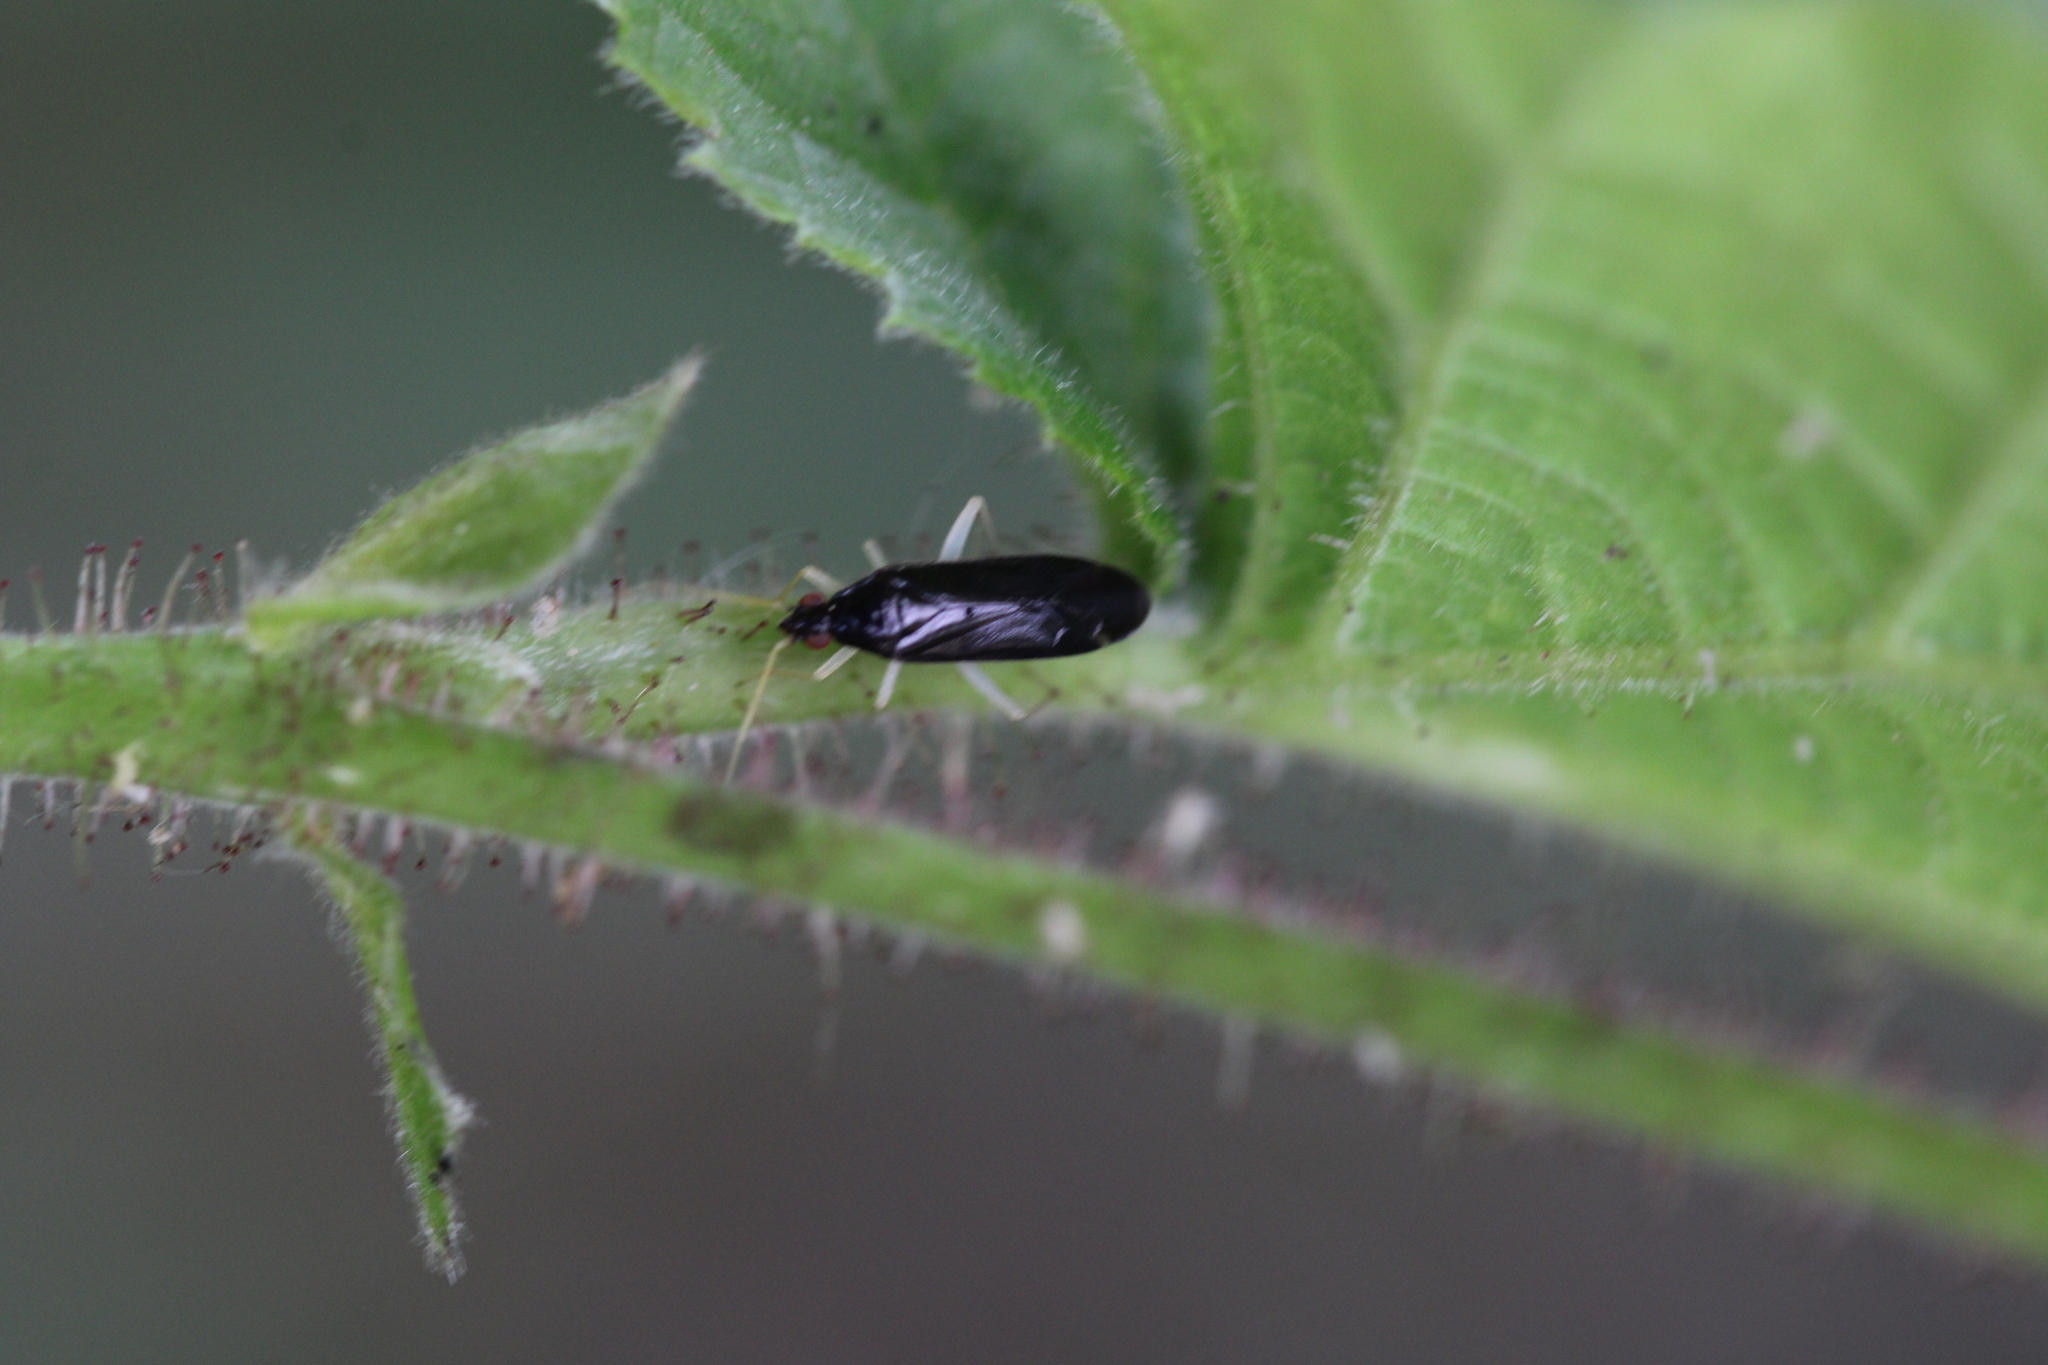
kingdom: Animalia
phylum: Arthropoda
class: Insecta
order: Hemiptera
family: Miridae
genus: Phylus
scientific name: Phylus coryli
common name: Plant bug
